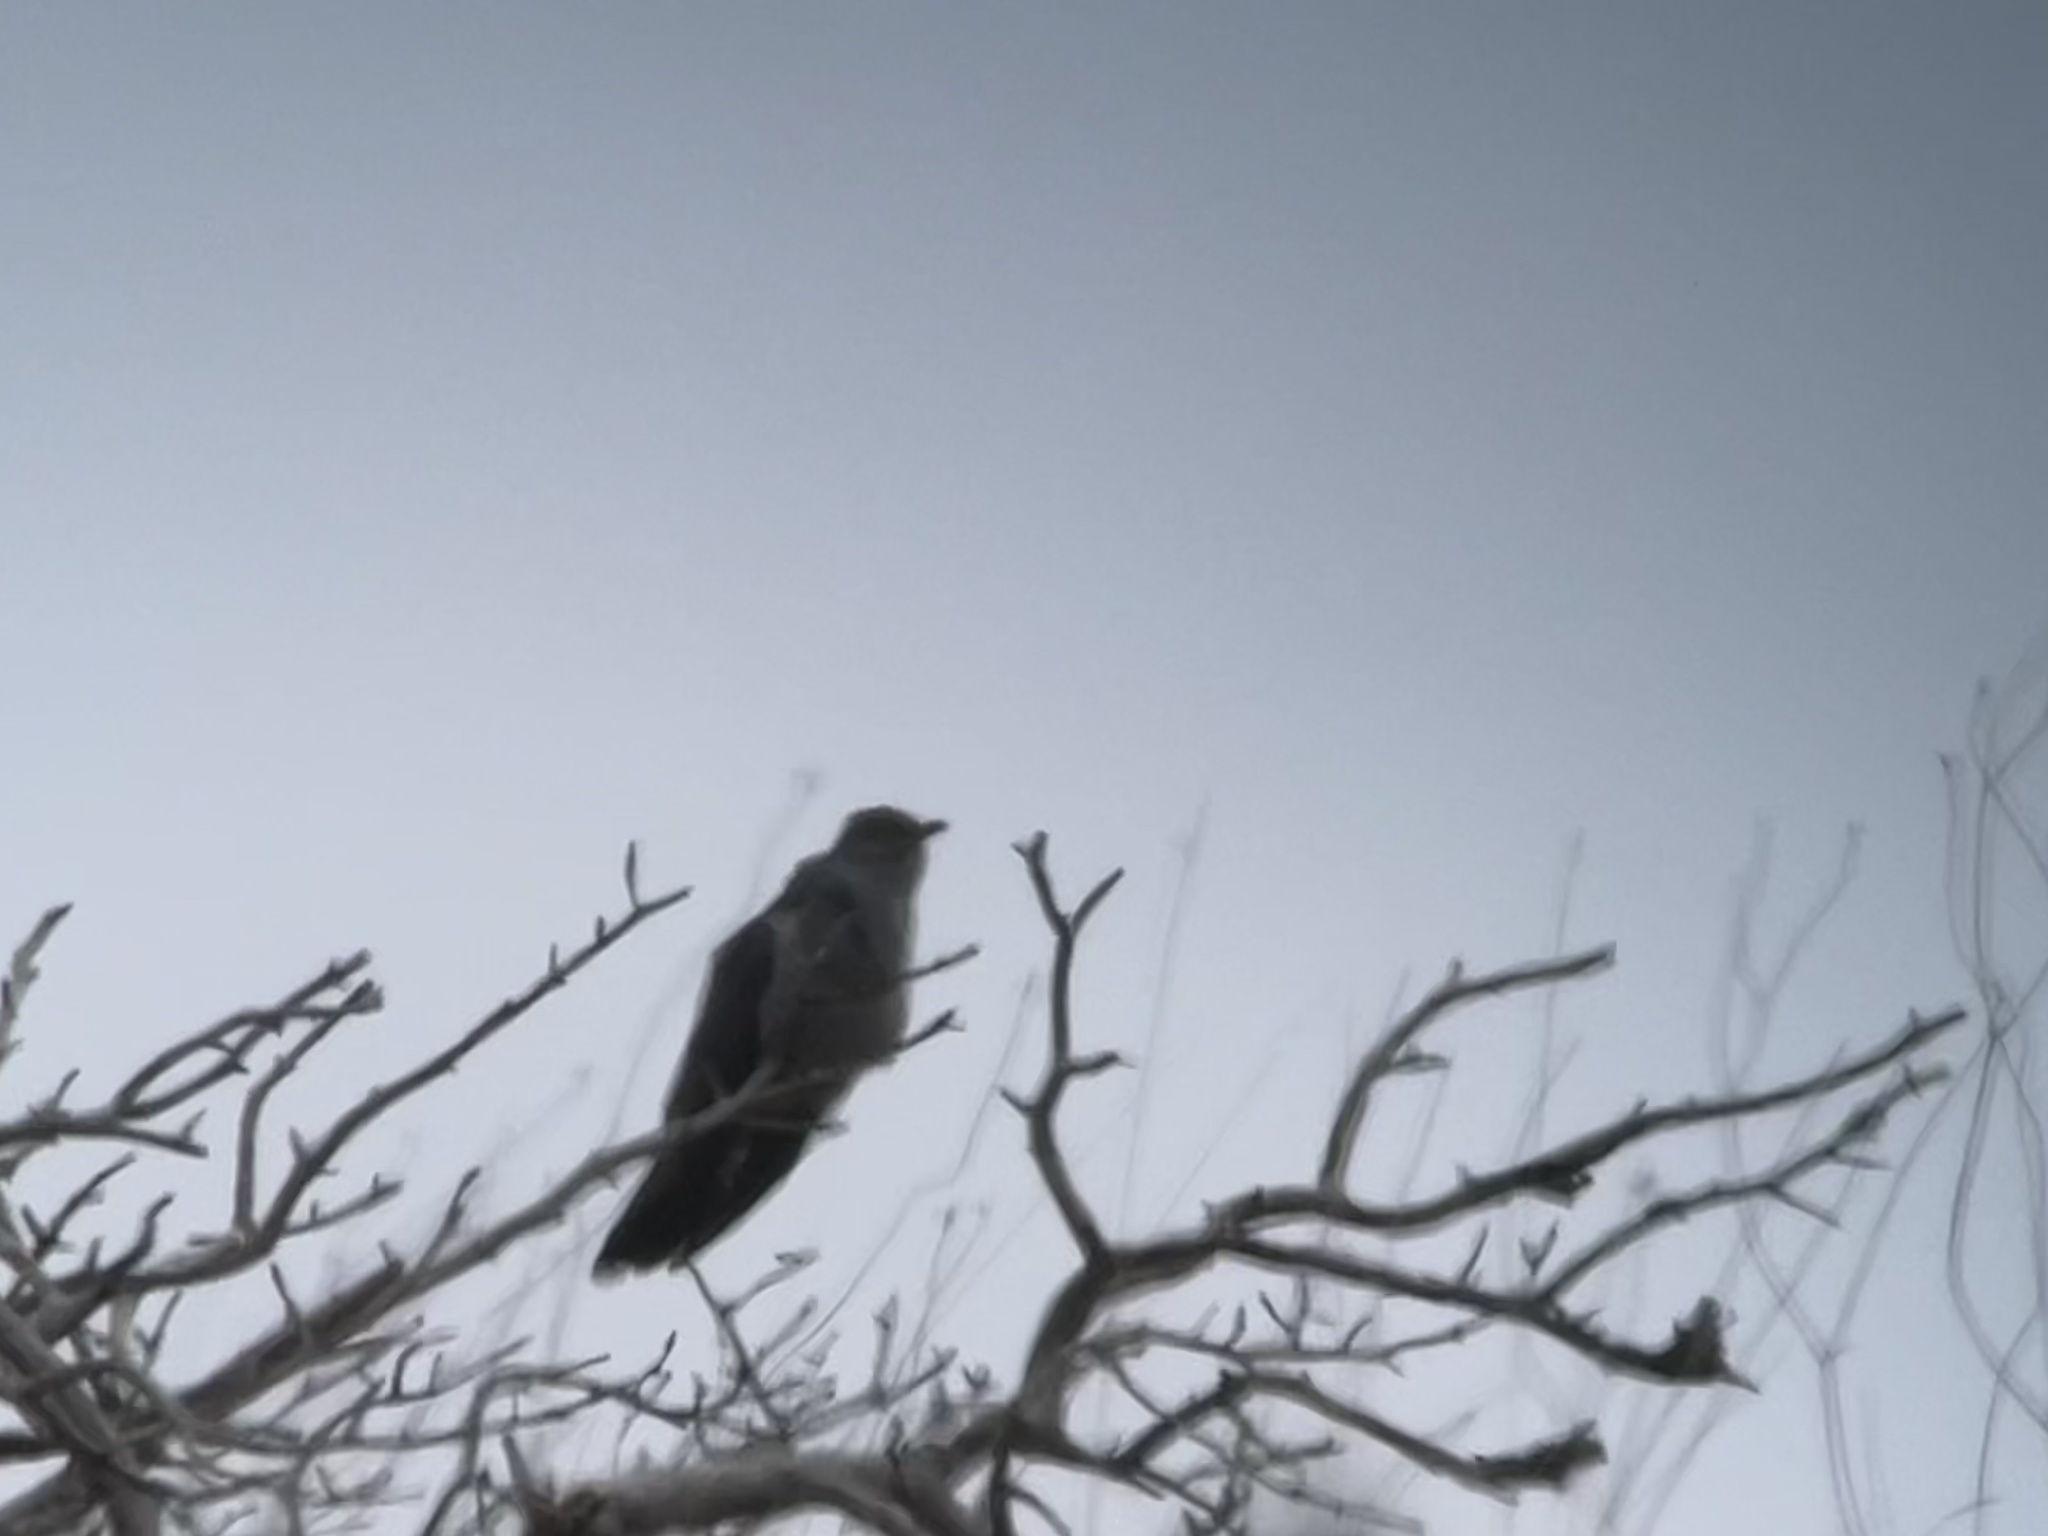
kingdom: Animalia
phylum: Chordata
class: Aves
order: Cuculiformes
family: Cuculidae
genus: Cuculus
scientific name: Cuculus canorus
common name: Common cuckoo
